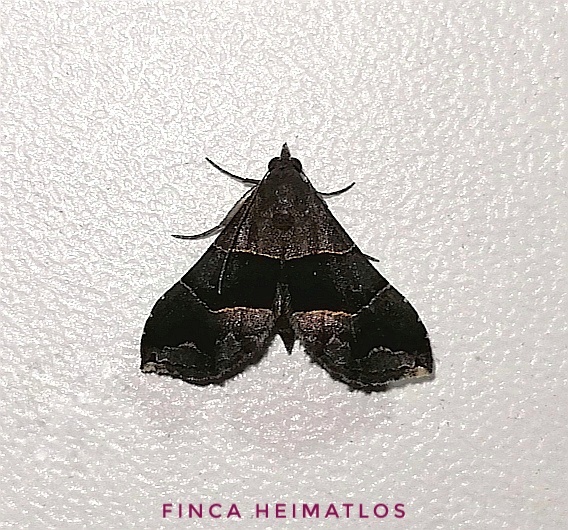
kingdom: Animalia
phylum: Arthropoda
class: Insecta
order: Lepidoptera
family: Noctuidae
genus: Abacena
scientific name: Abacena accincta
